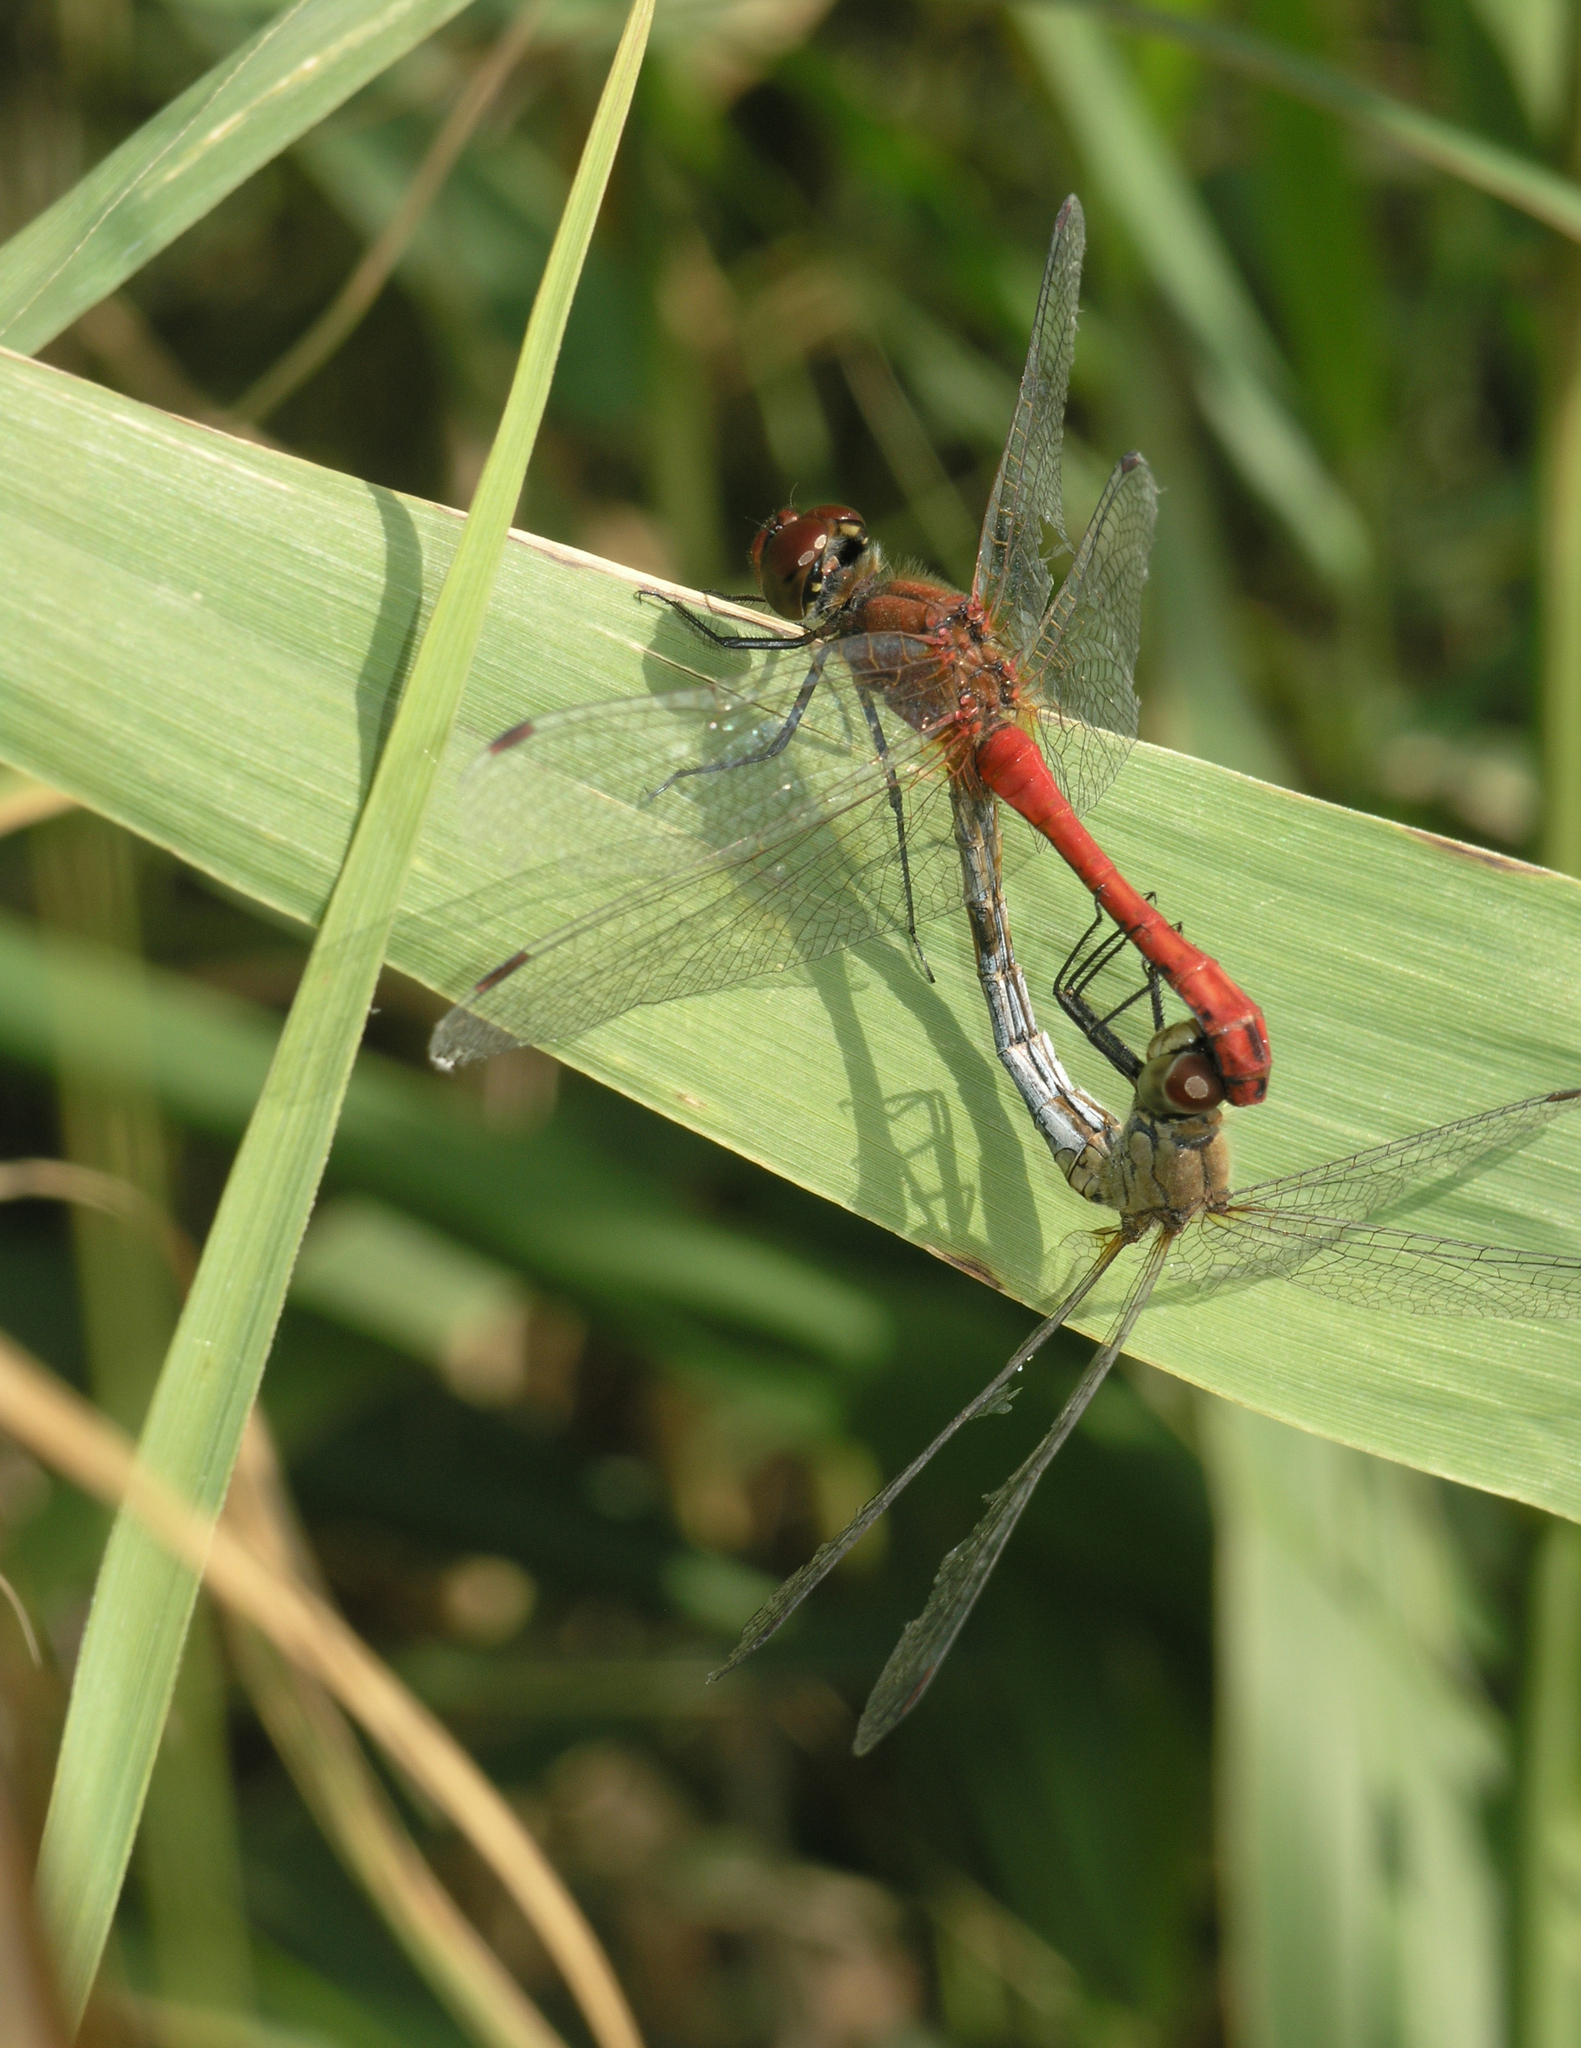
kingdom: Animalia
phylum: Arthropoda
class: Insecta
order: Odonata
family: Libellulidae
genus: Sympetrum
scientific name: Sympetrum sanguineum
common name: Ruddy darter
